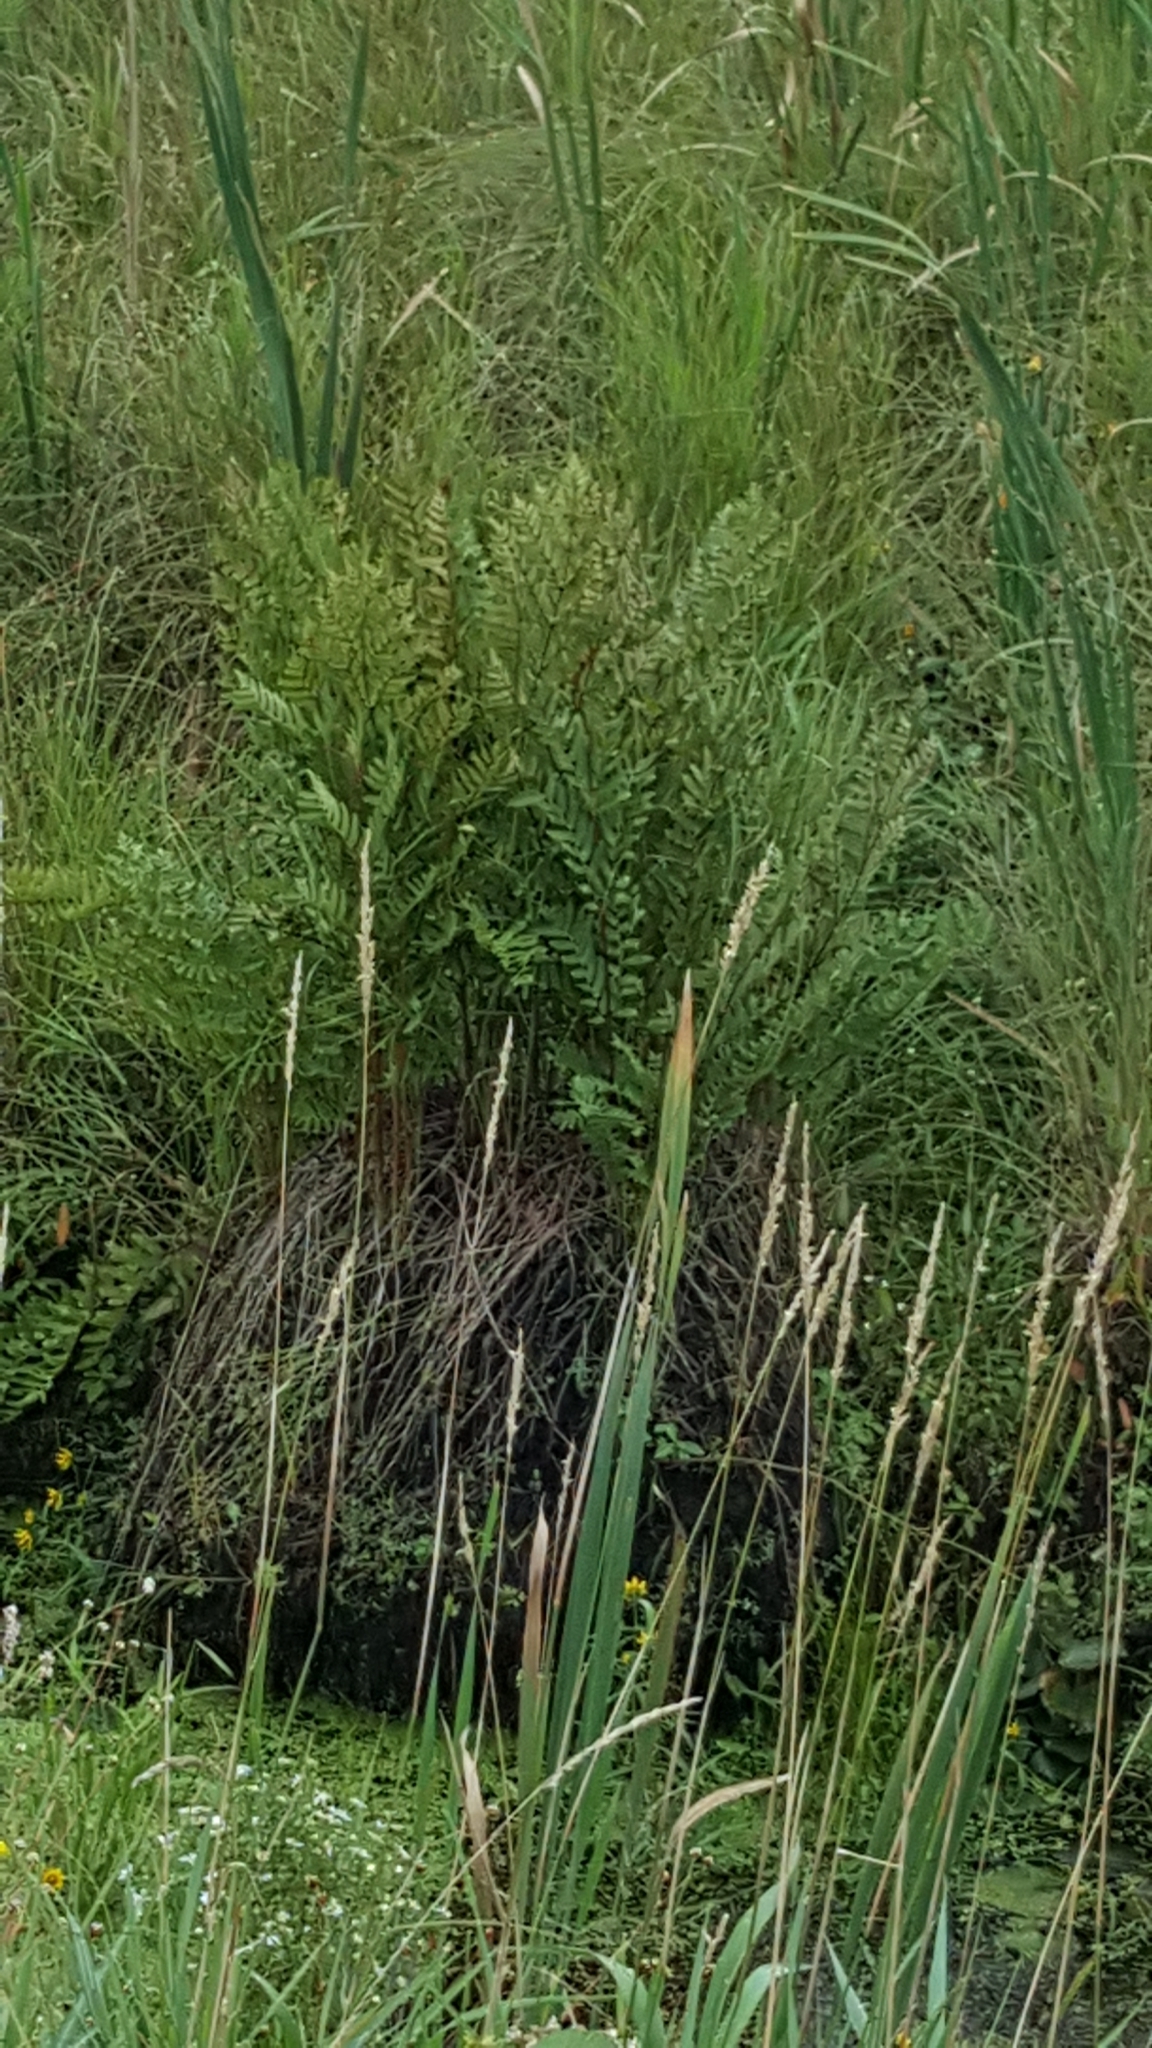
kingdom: Plantae
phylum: Tracheophyta
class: Polypodiopsida
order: Osmundales
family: Osmundaceae
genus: Osmunda
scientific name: Osmunda spectabilis
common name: American royal fern
